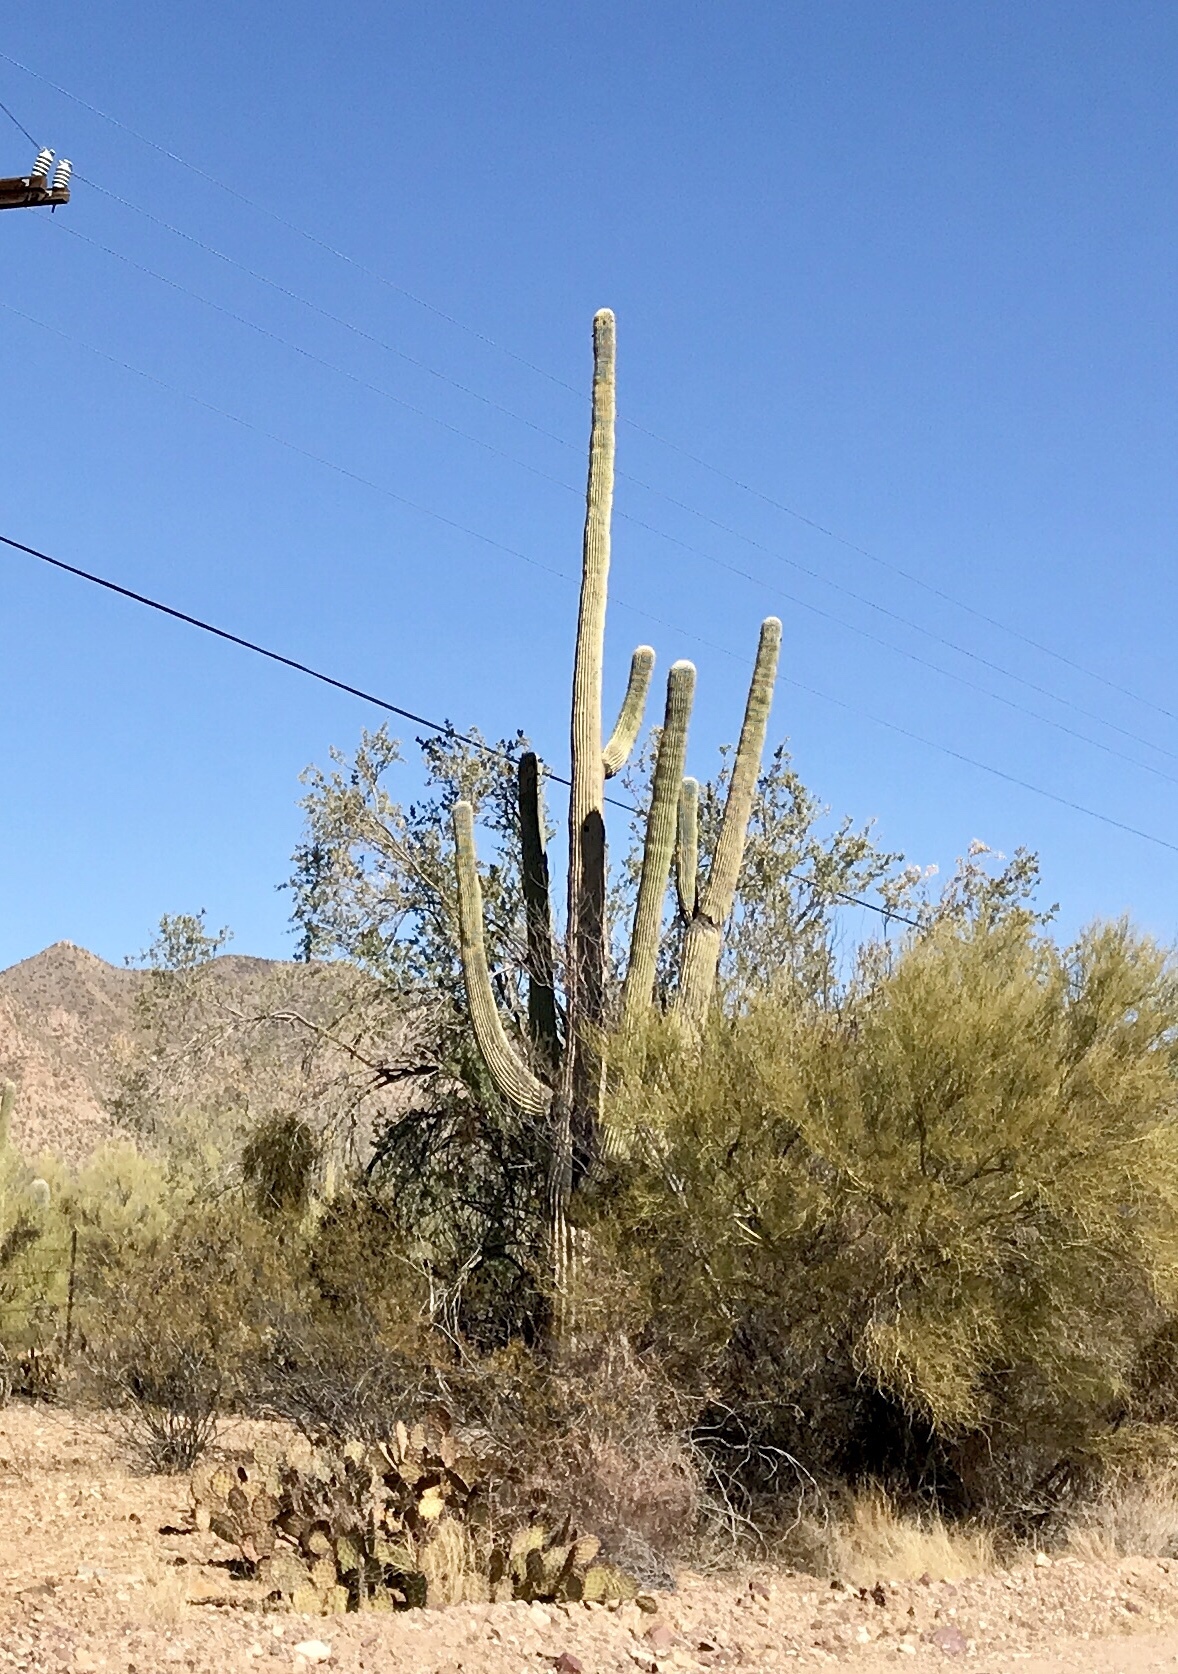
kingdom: Plantae
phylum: Tracheophyta
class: Magnoliopsida
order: Caryophyllales
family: Cactaceae
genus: Carnegiea
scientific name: Carnegiea gigantea
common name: Saguaro
